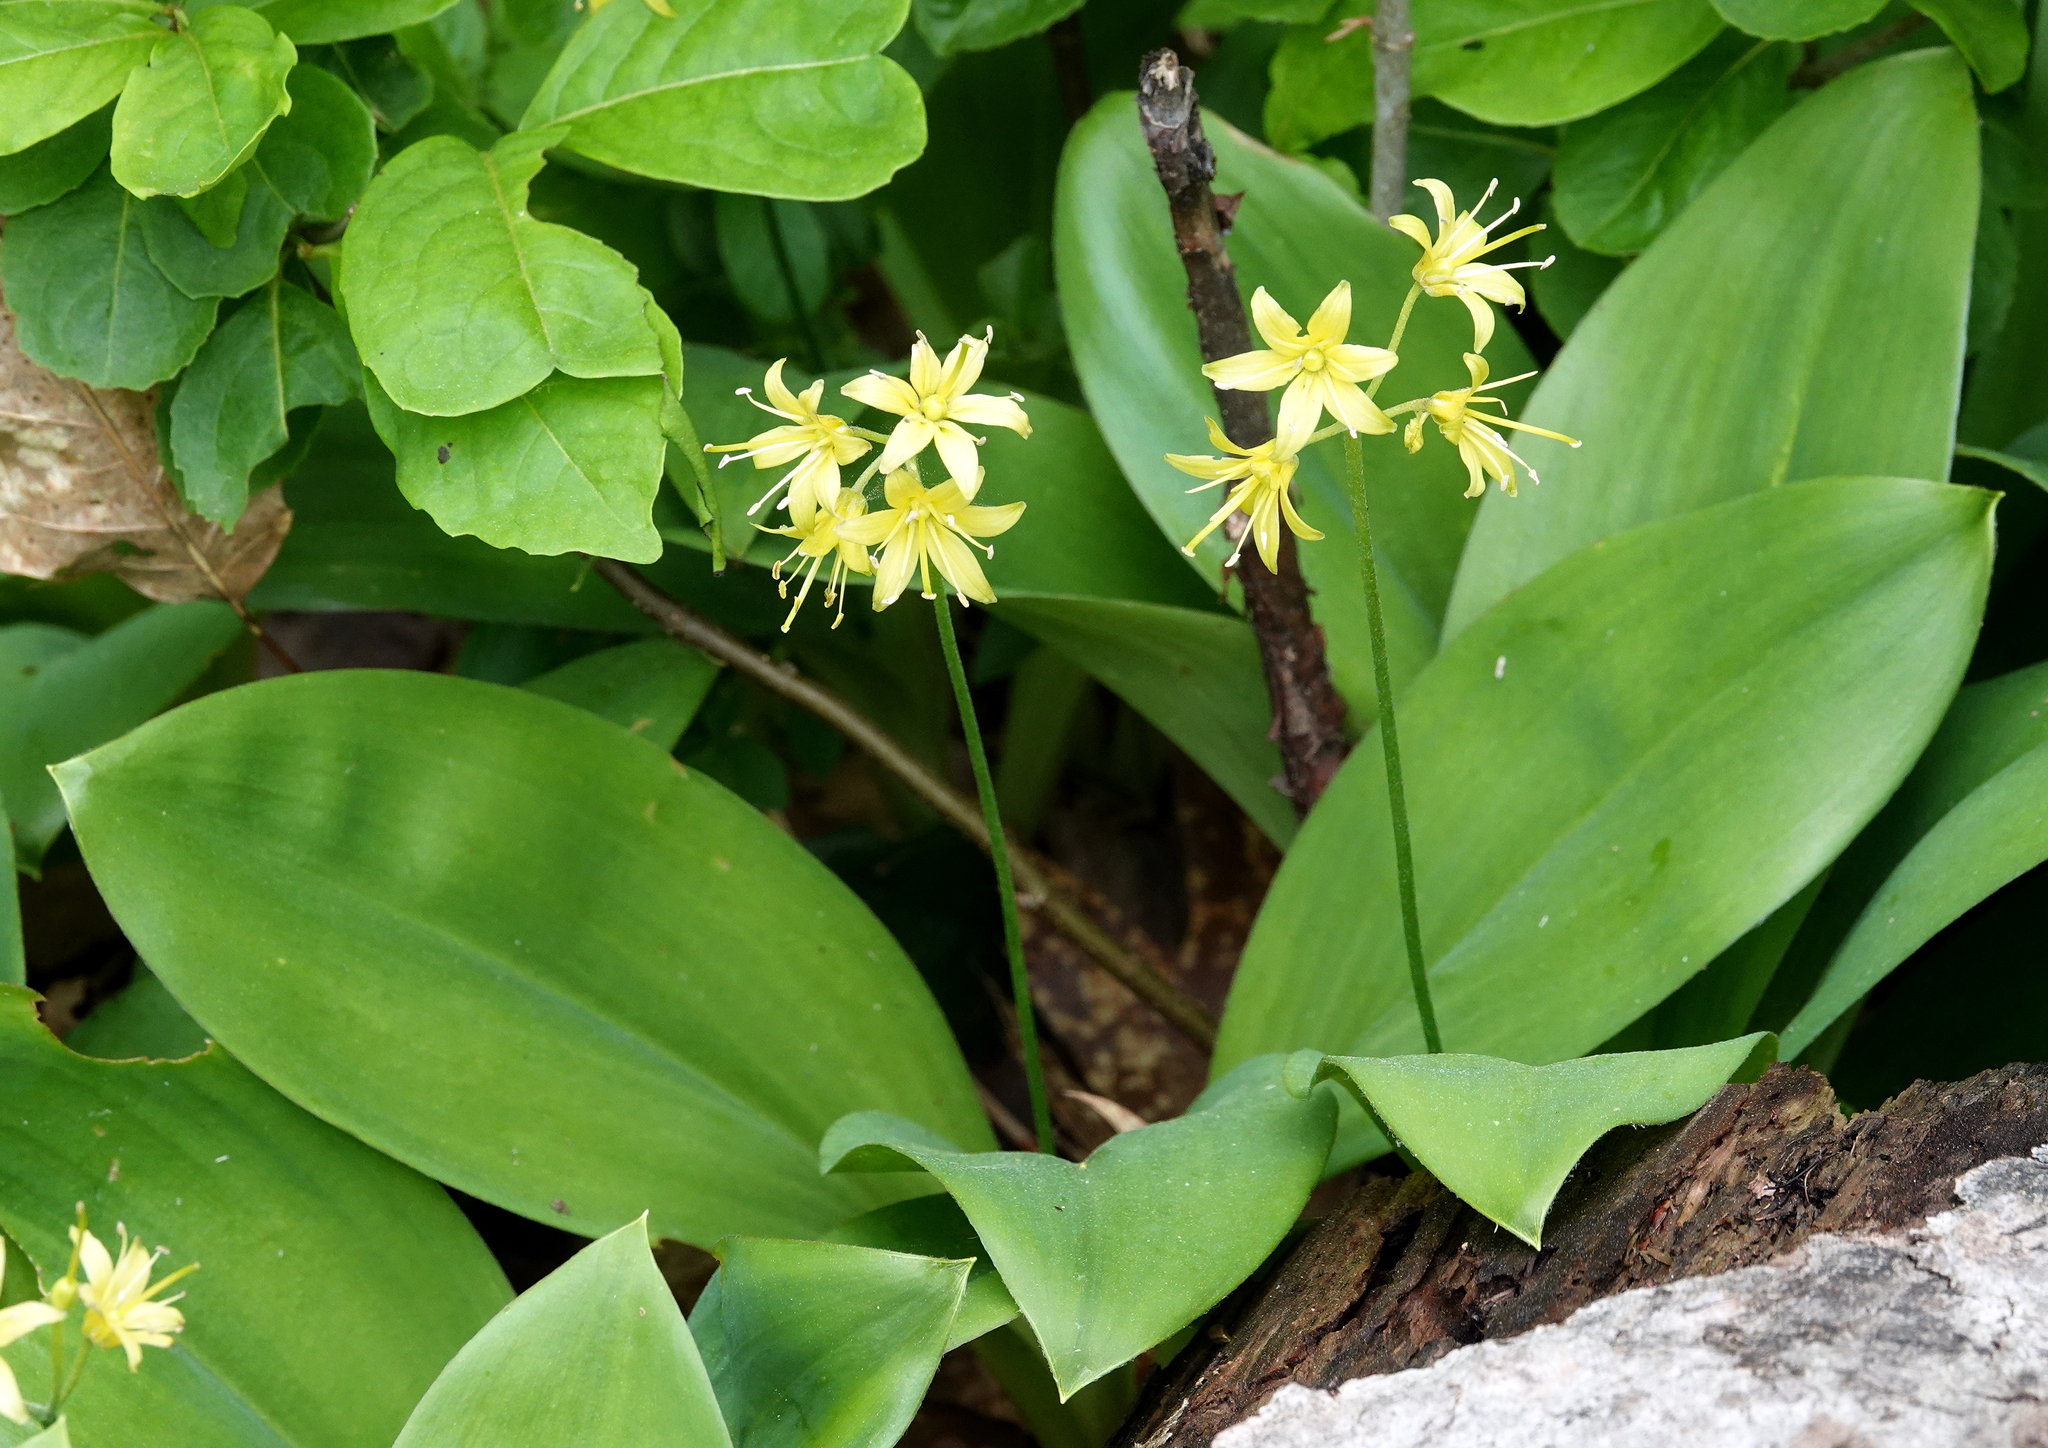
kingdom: Plantae
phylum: Tracheophyta
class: Liliopsida
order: Liliales
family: Liliaceae
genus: Clintonia
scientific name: Clintonia borealis
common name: Yellow clintonia
